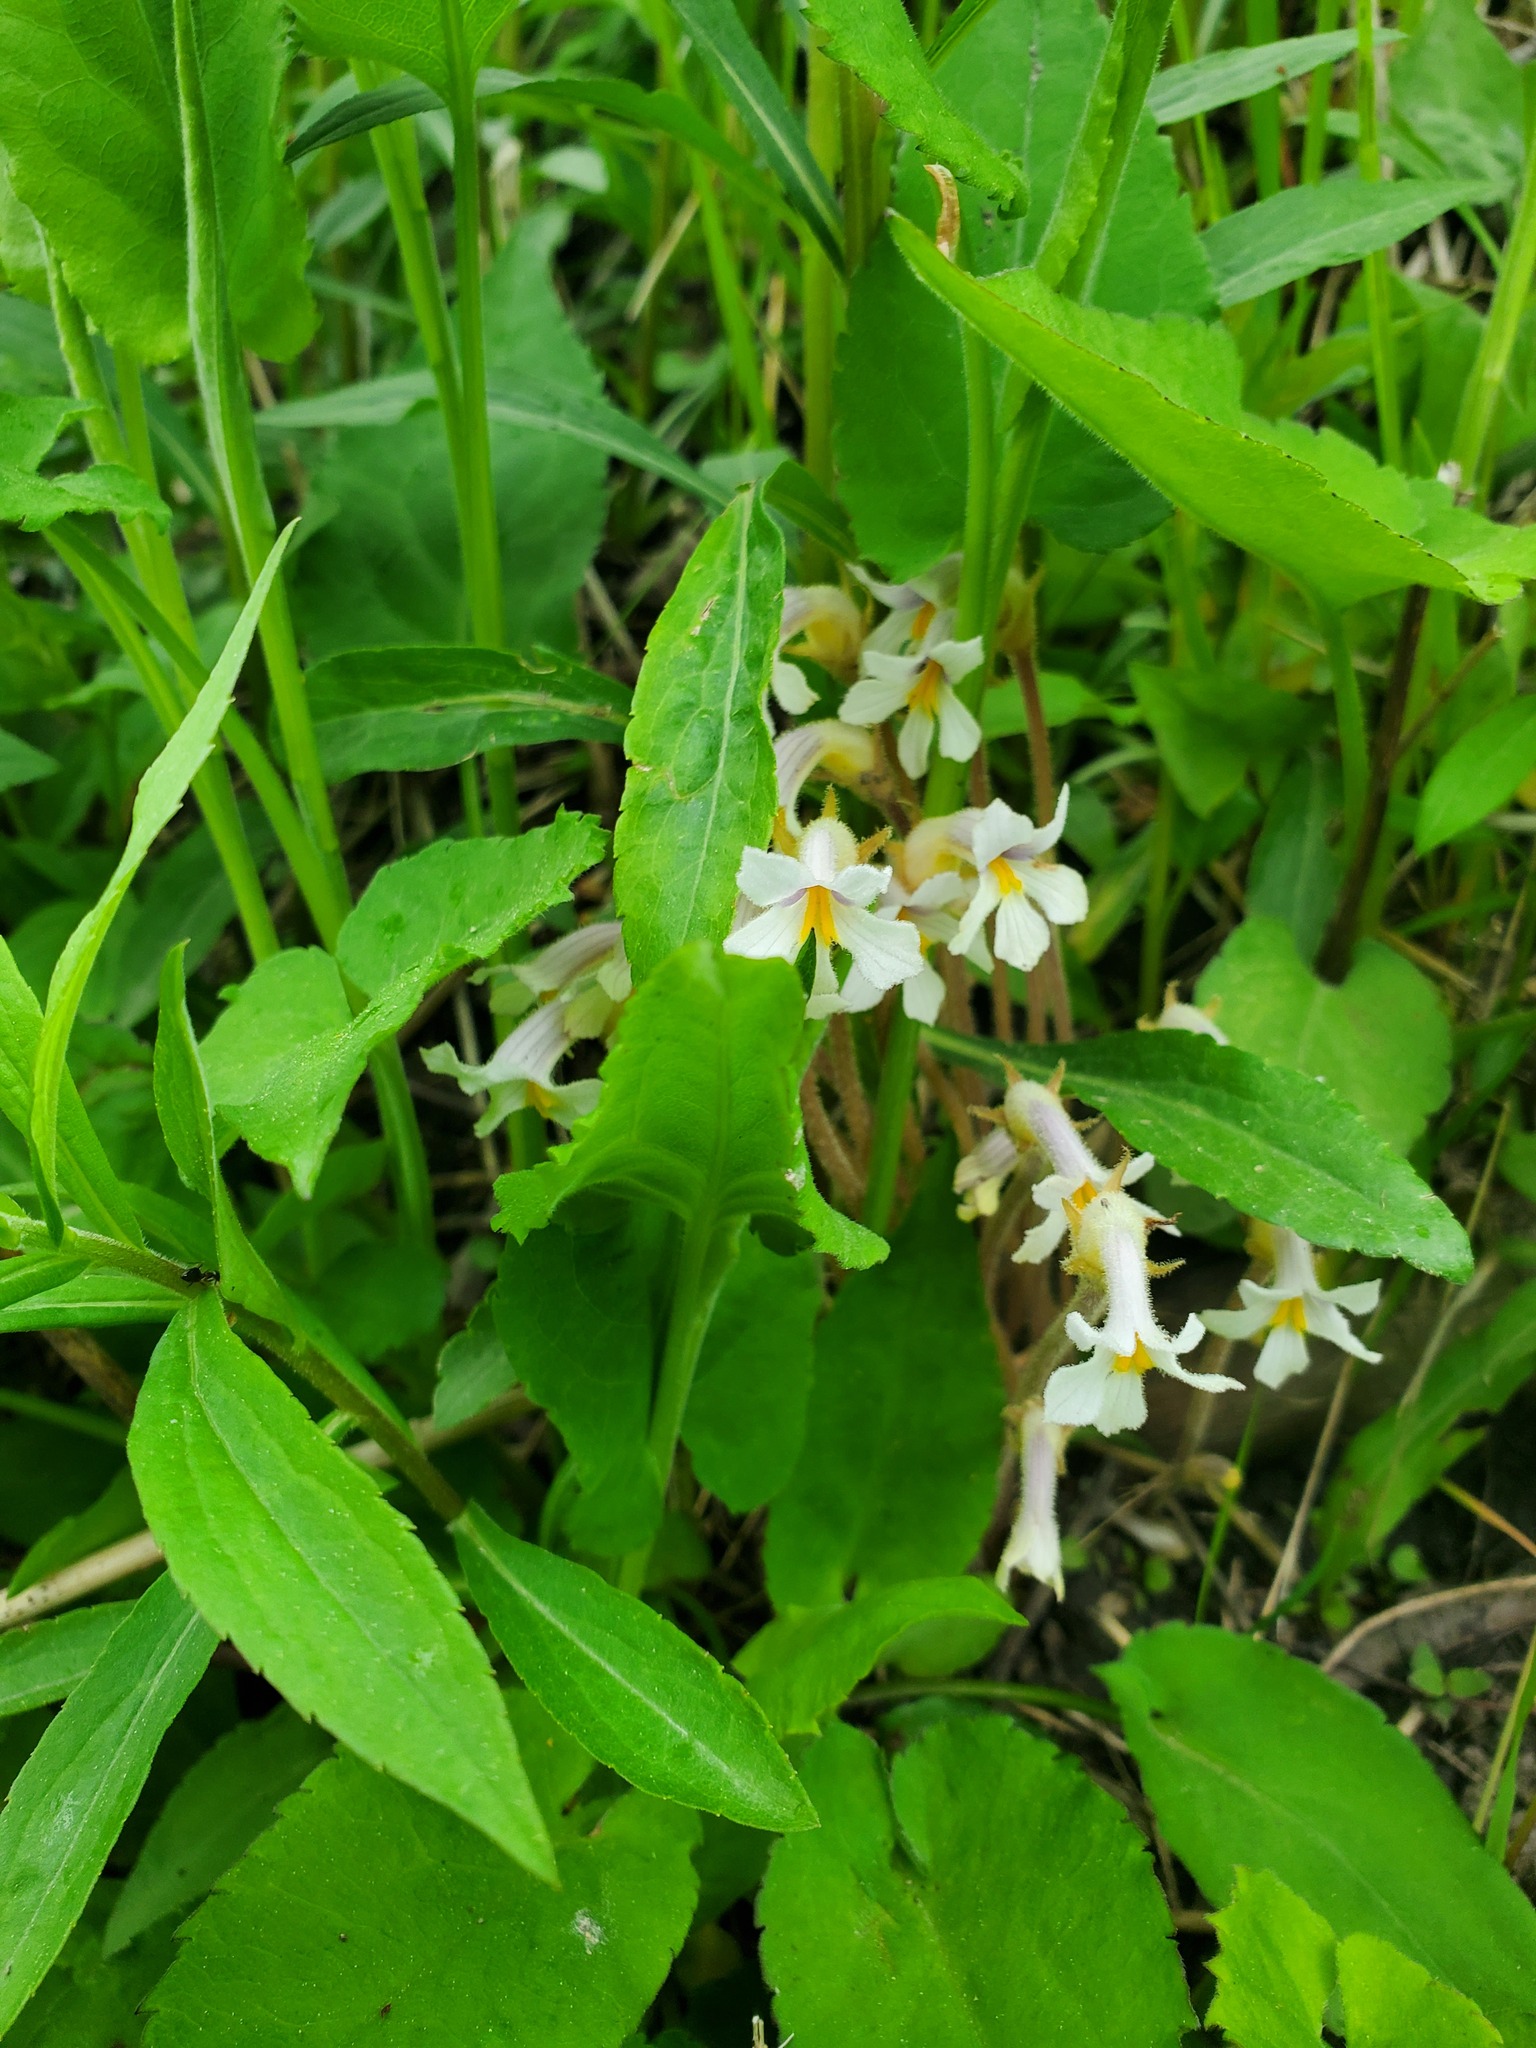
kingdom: Plantae
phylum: Tracheophyta
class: Magnoliopsida
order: Lamiales
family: Orobanchaceae
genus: Aphyllon
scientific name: Aphyllon uniflorum
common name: One-flowered broomrape
